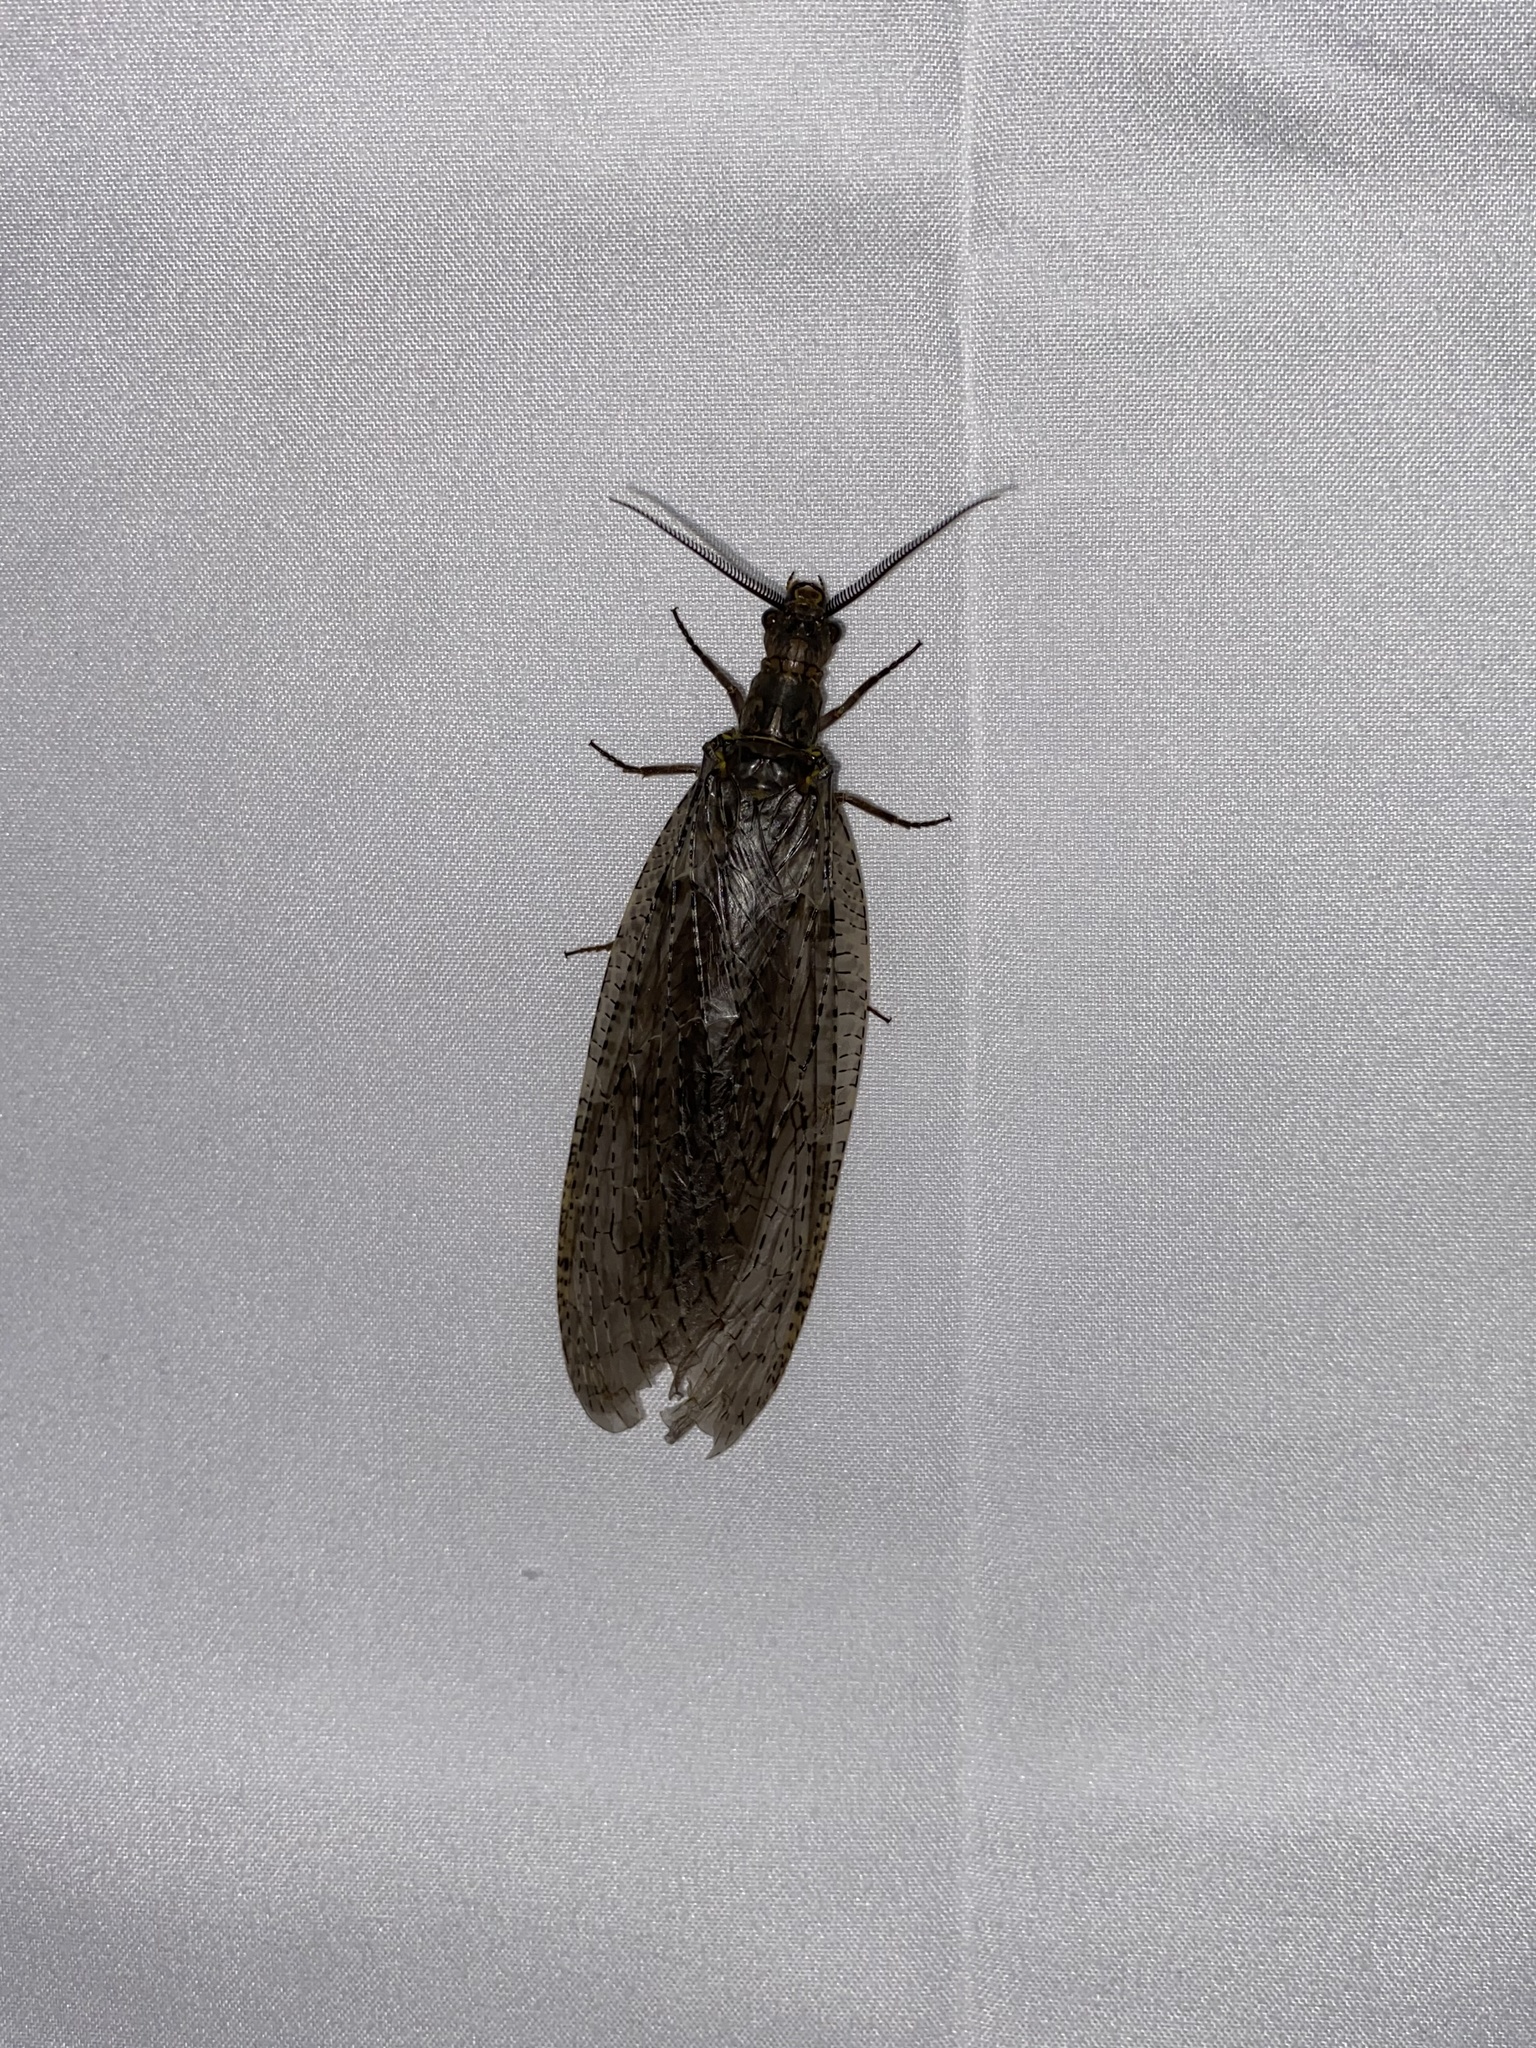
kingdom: Animalia
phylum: Arthropoda
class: Insecta
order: Megaloptera
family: Corydalidae
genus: Chauliodes
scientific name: Chauliodes pectinicornis
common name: Summer fishfly
